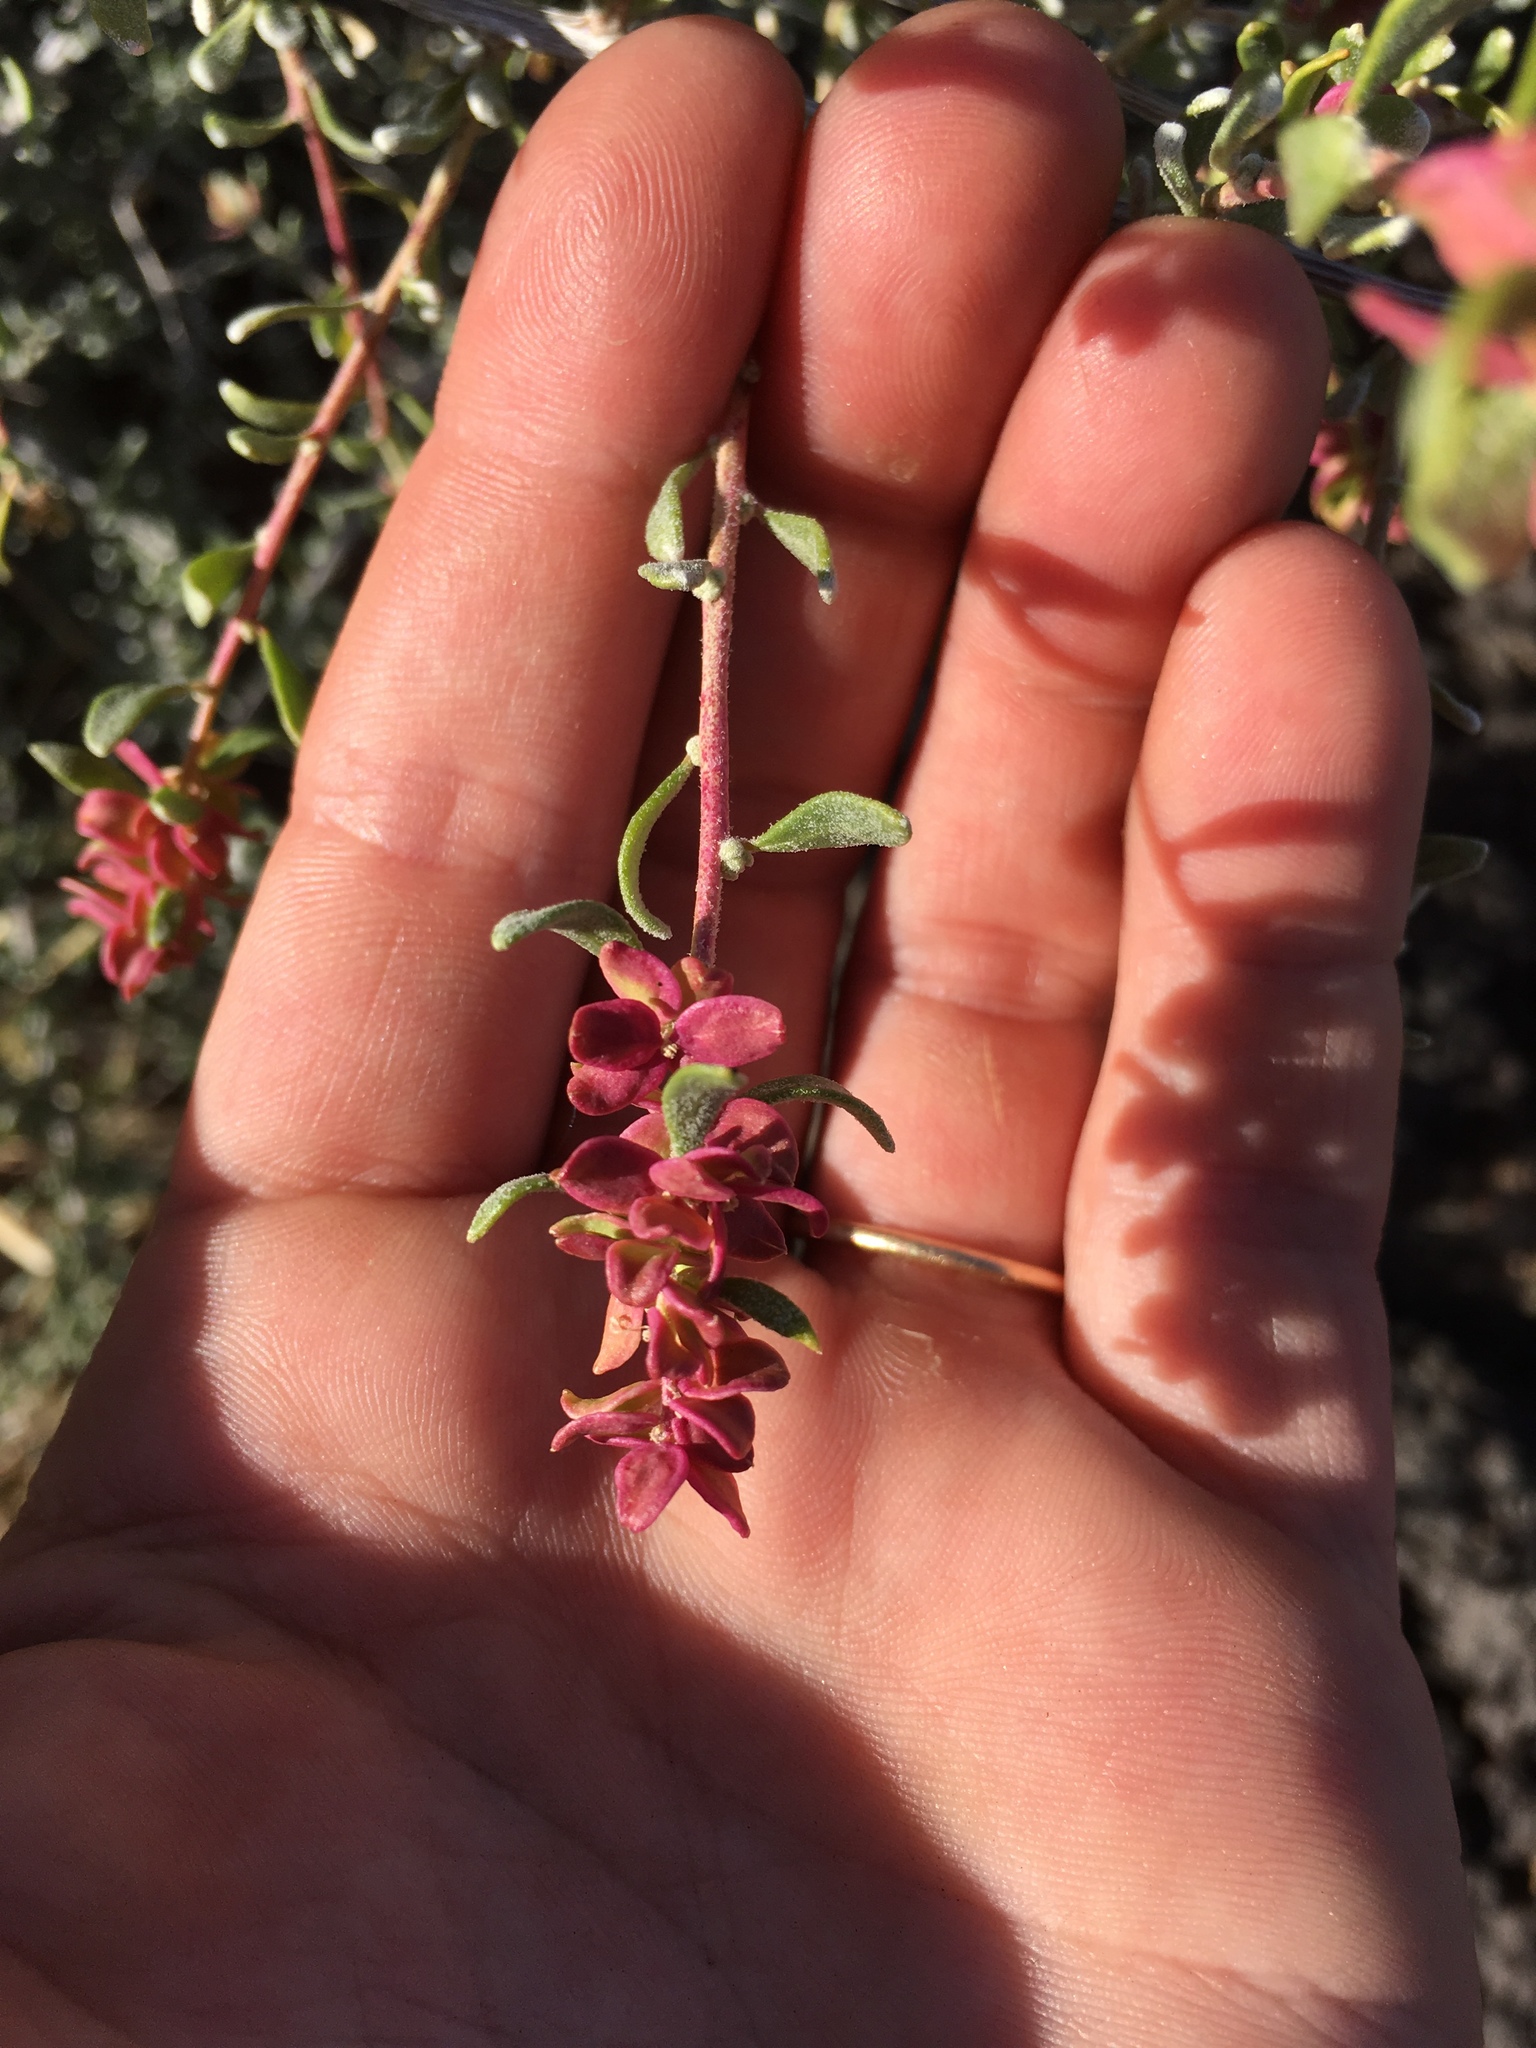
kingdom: Plantae
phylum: Tracheophyta
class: Magnoliopsida
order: Caryophyllales
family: Amaranthaceae
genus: Grayia
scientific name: Grayia spinosa
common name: Spiny hopsage
